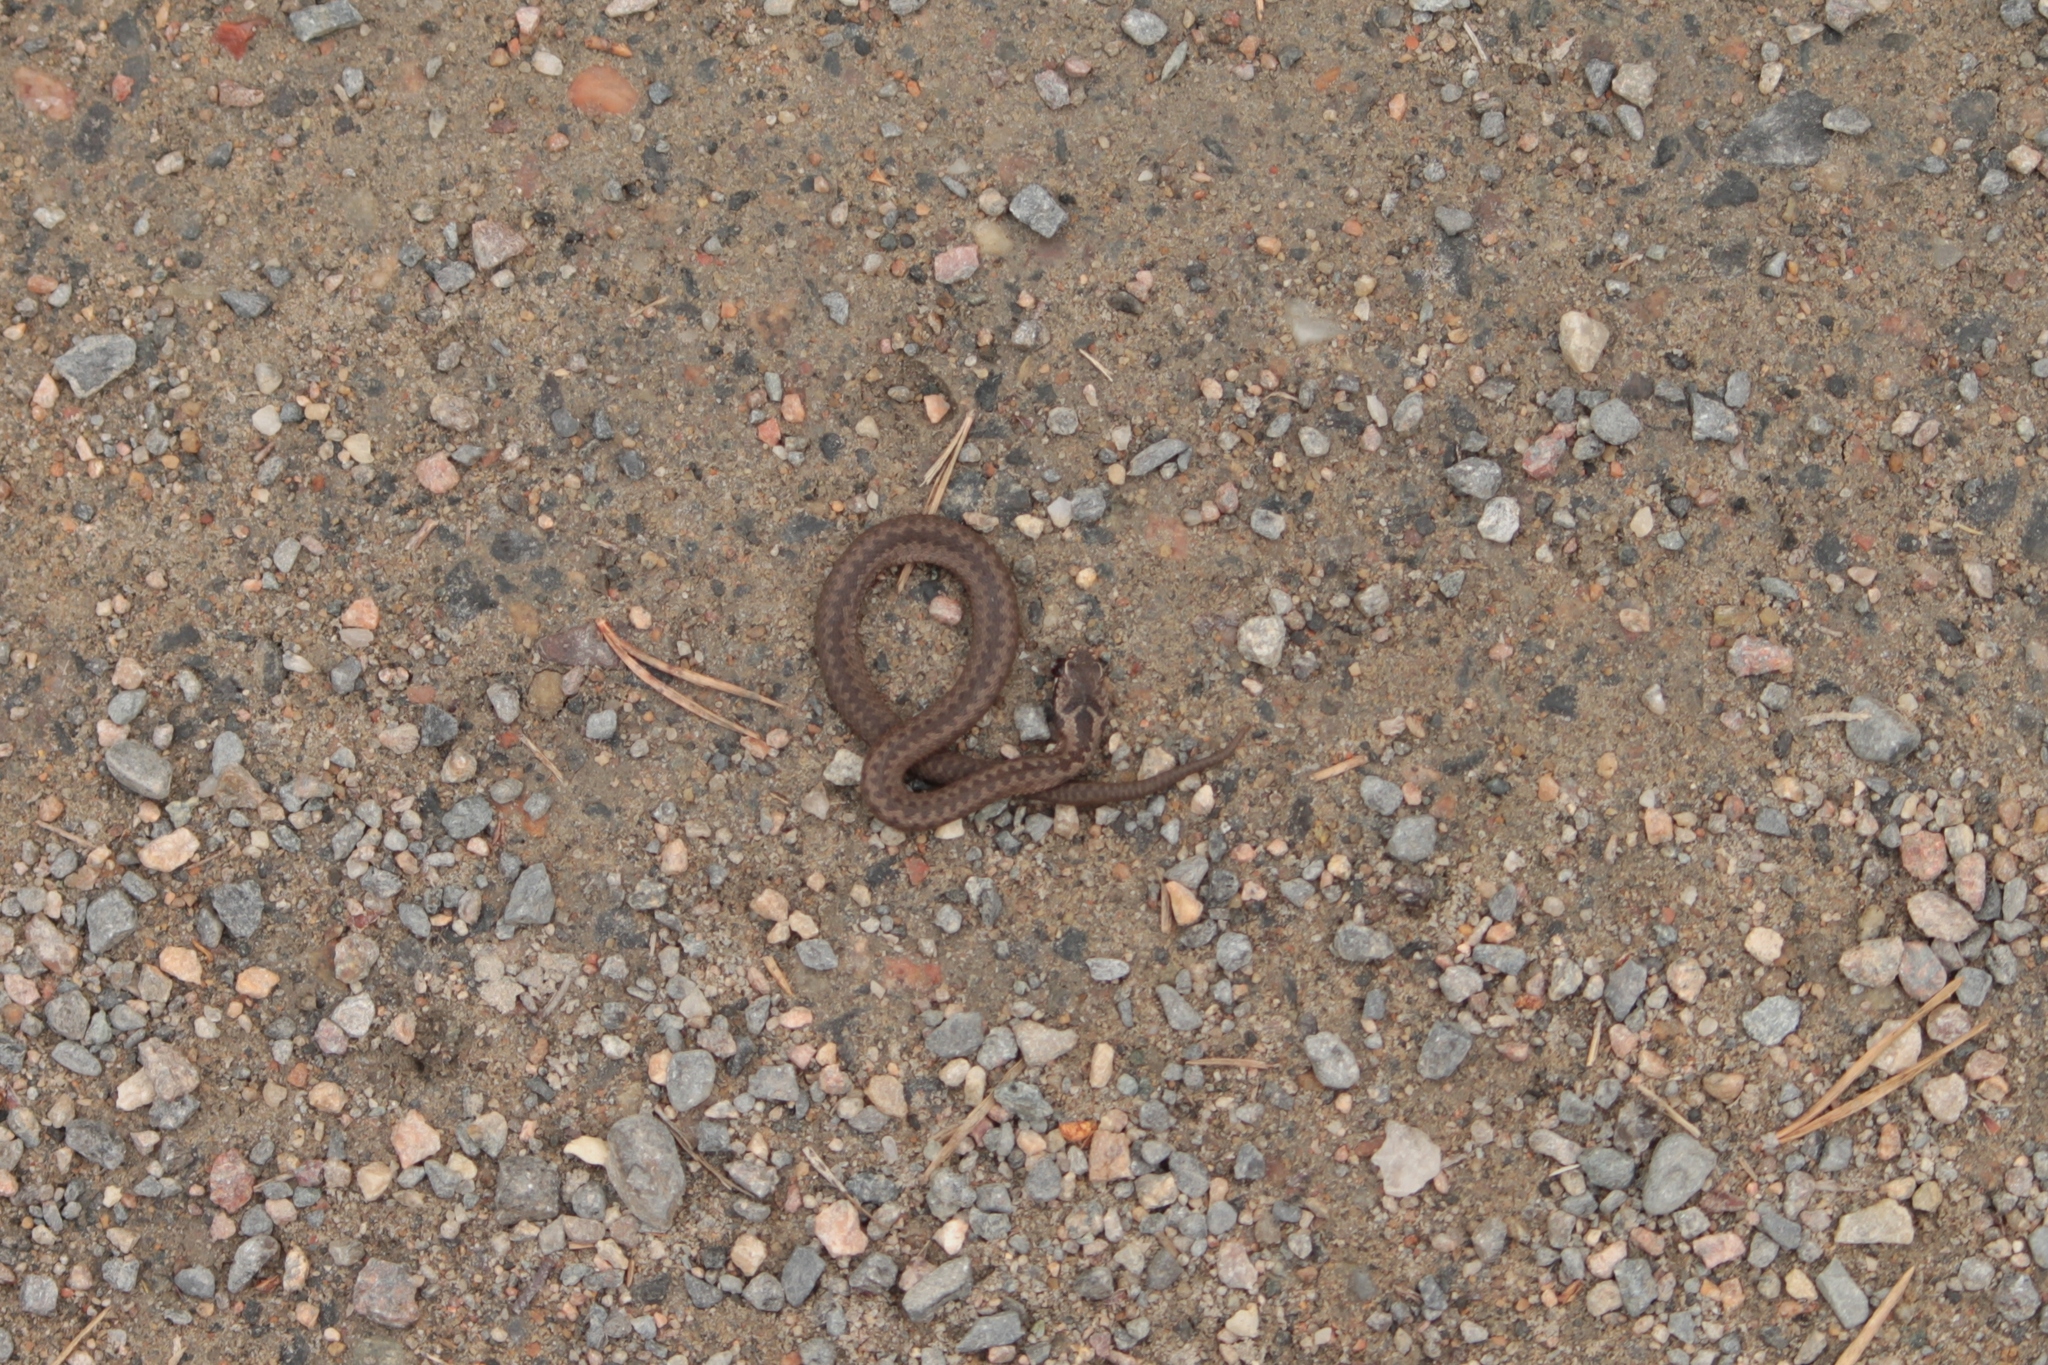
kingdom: Animalia
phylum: Chordata
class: Squamata
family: Viperidae
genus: Vipera
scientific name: Vipera berus
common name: Adder
